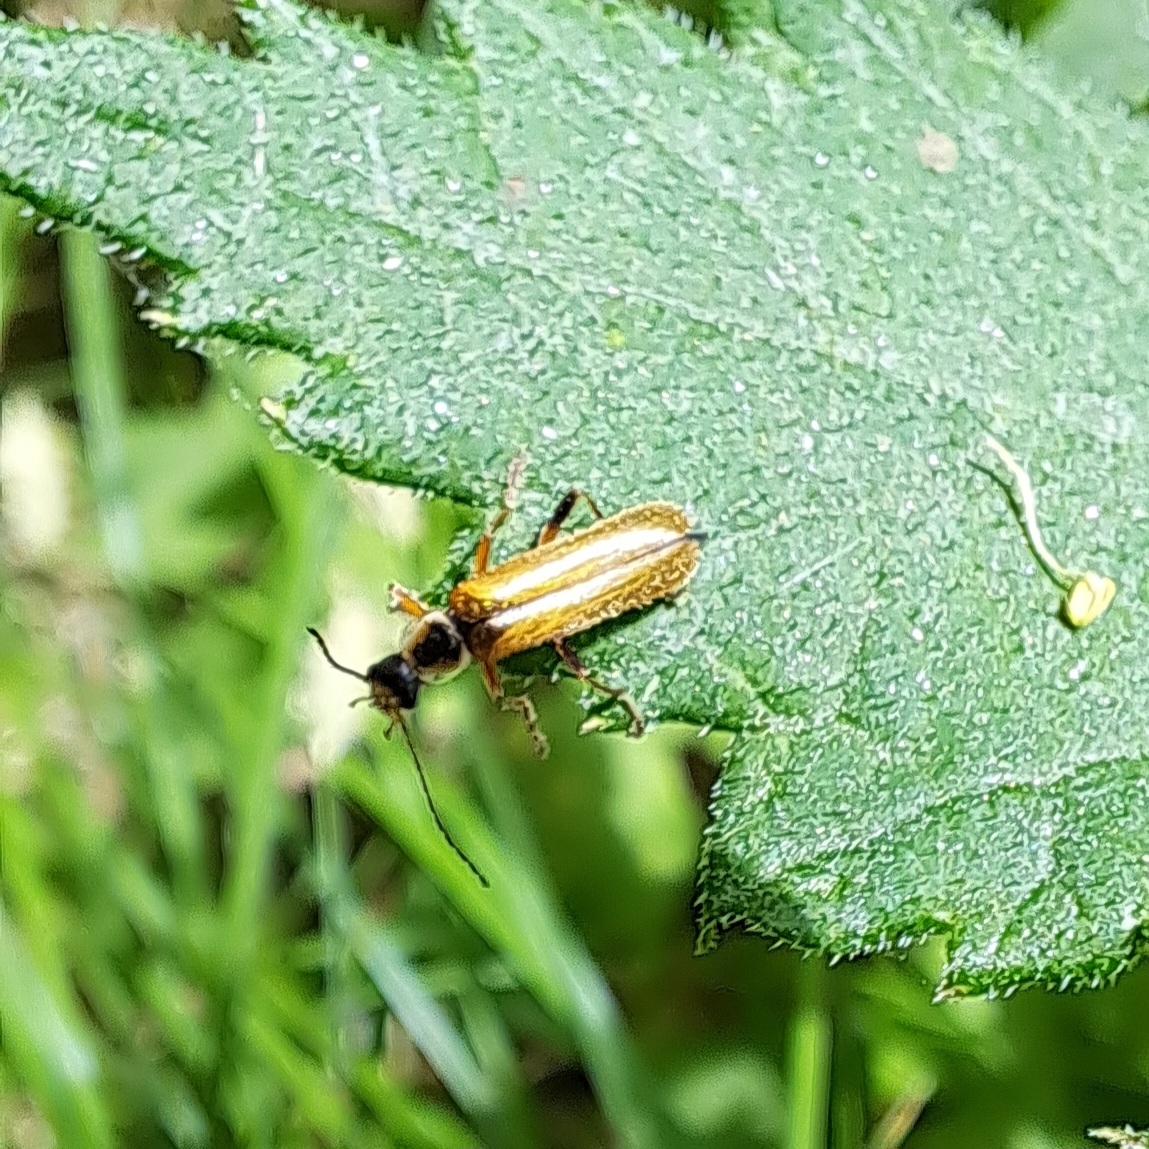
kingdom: Animalia
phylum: Arthropoda
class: Insecta
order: Coleoptera
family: Cantharidae
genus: Cantharis
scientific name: Cantharis decipiens
